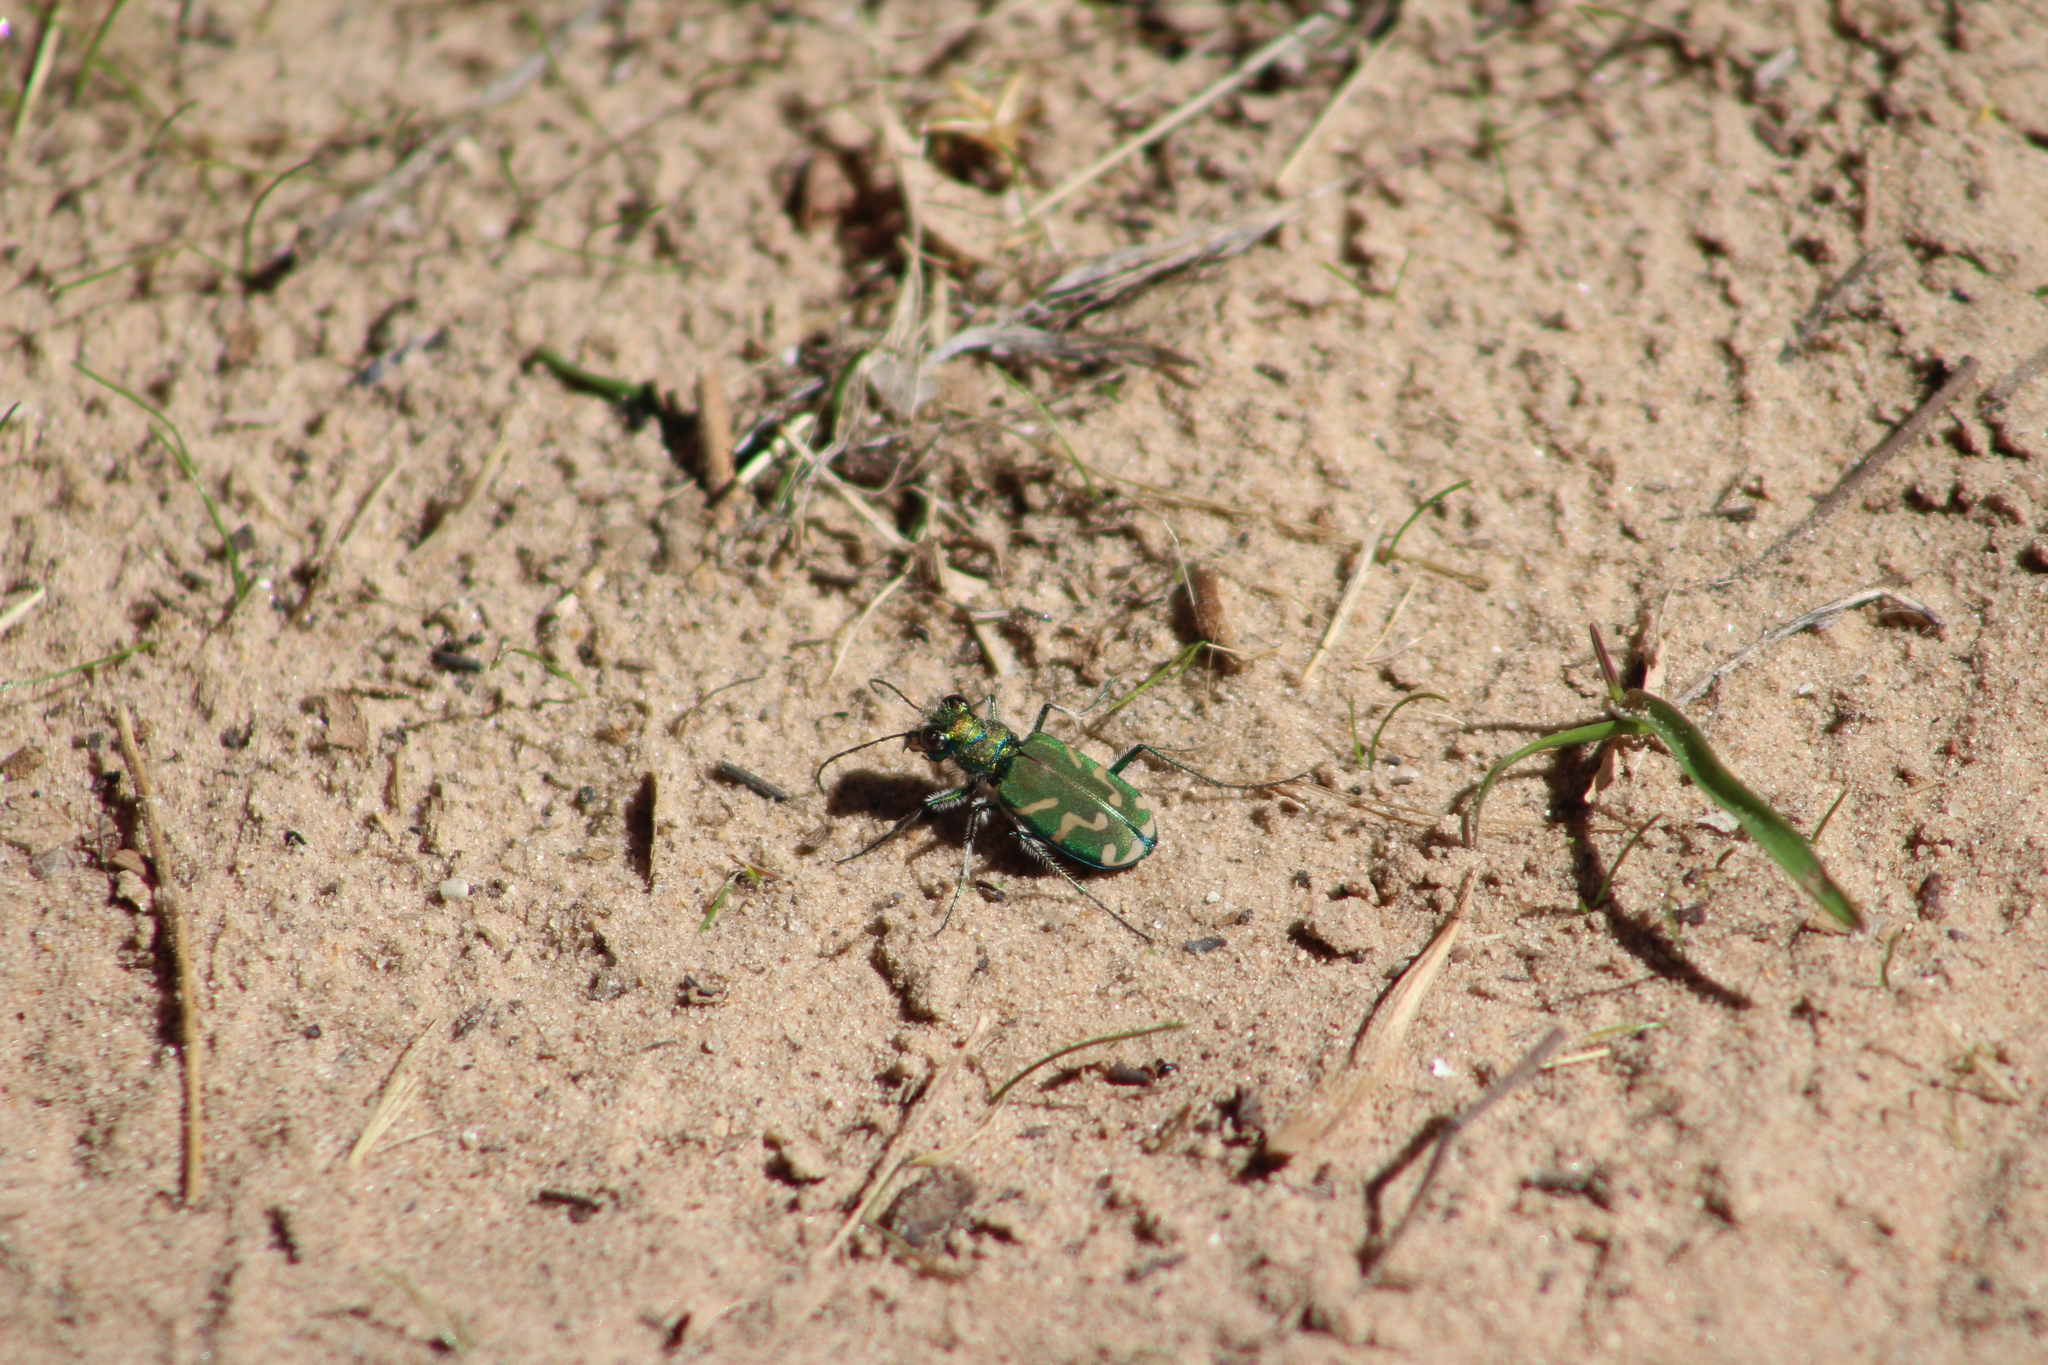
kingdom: Animalia
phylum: Arthropoda
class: Insecta
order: Coleoptera
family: Carabidae
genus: Cicindela
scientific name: Cicindela tranquebarica
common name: Oblique-lined tiger beetle
